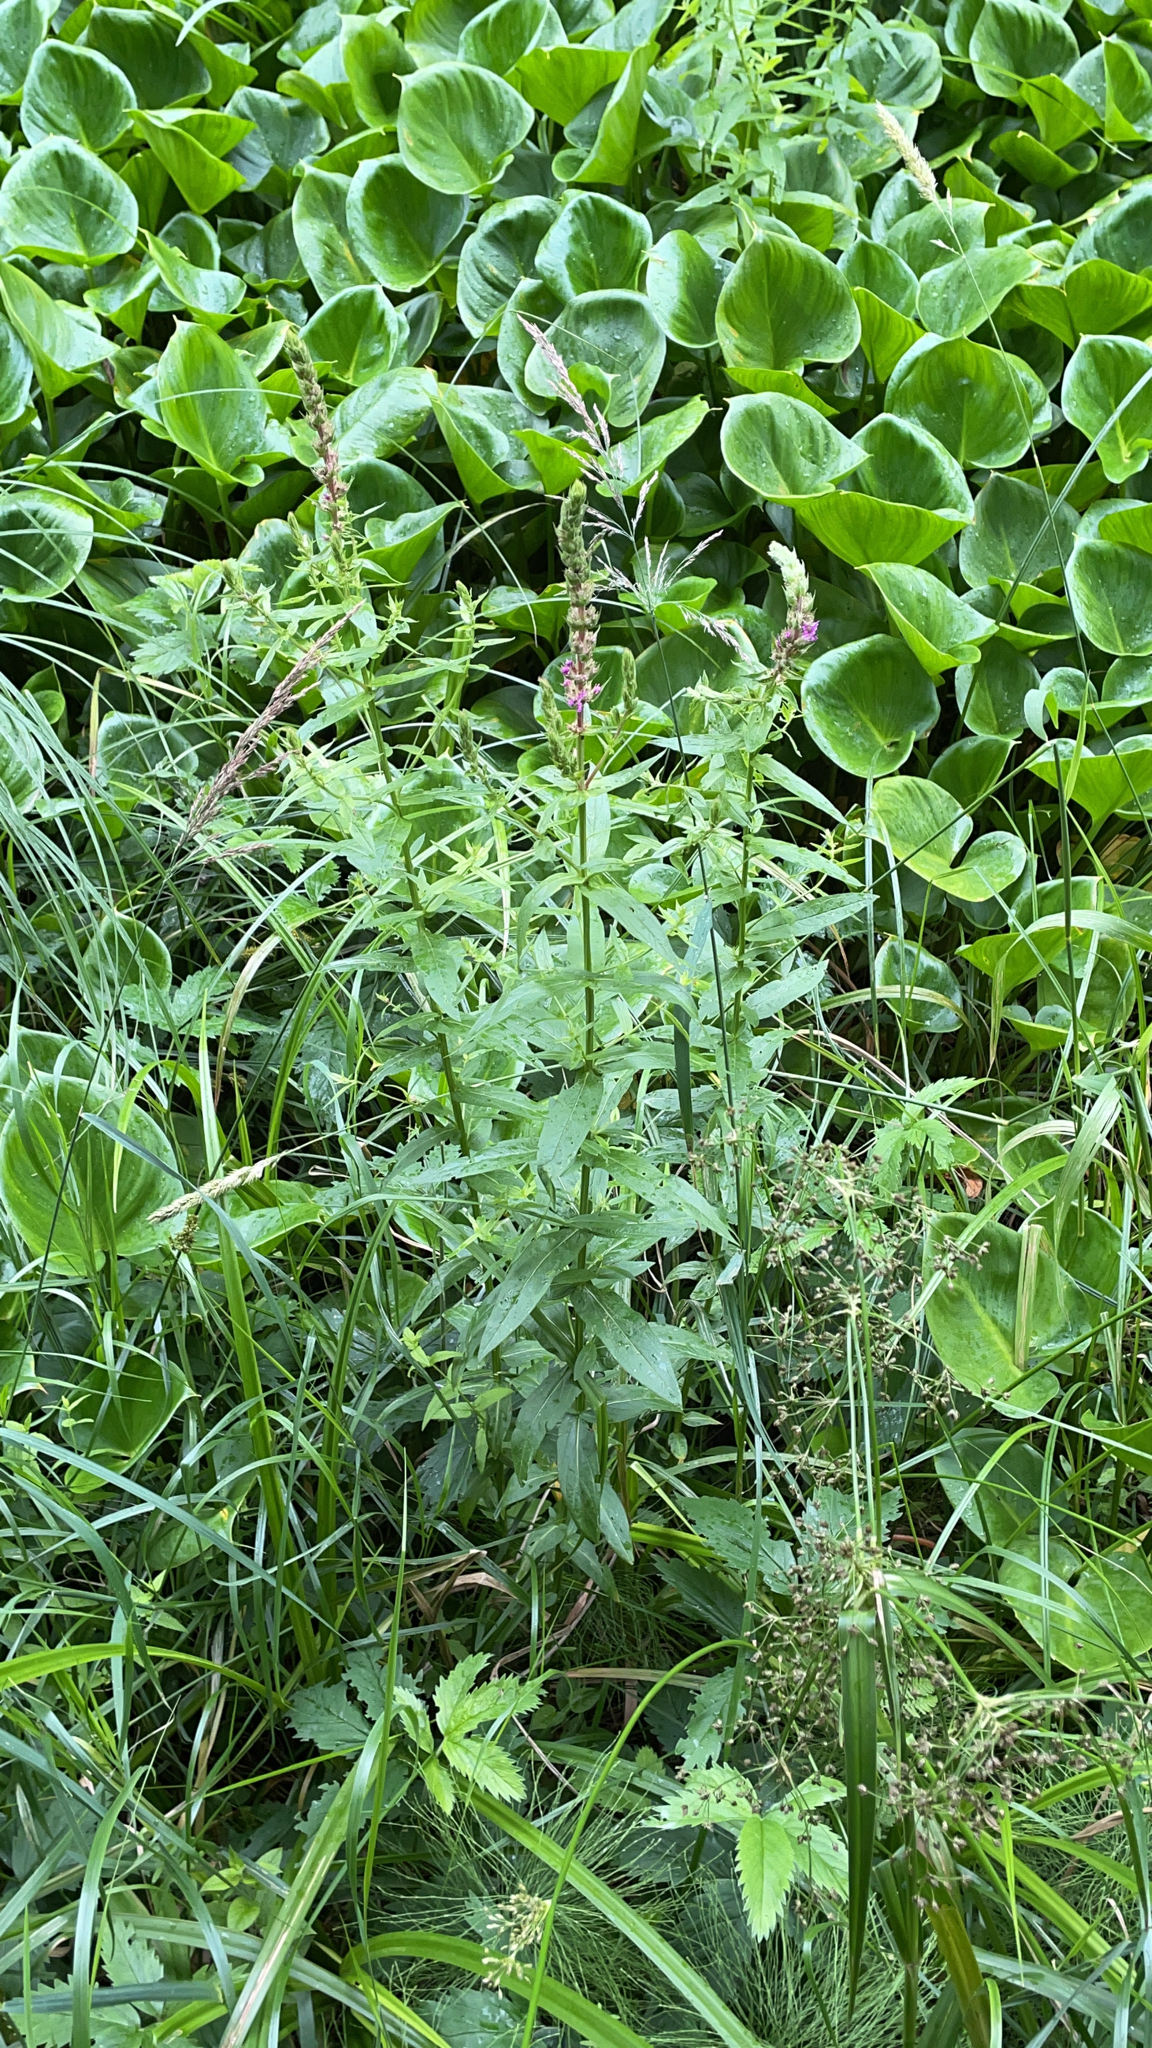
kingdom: Plantae
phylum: Tracheophyta
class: Magnoliopsida
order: Myrtales
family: Lythraceae
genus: Lythrum
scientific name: Lythrum salicaria
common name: Purple loosestrife
